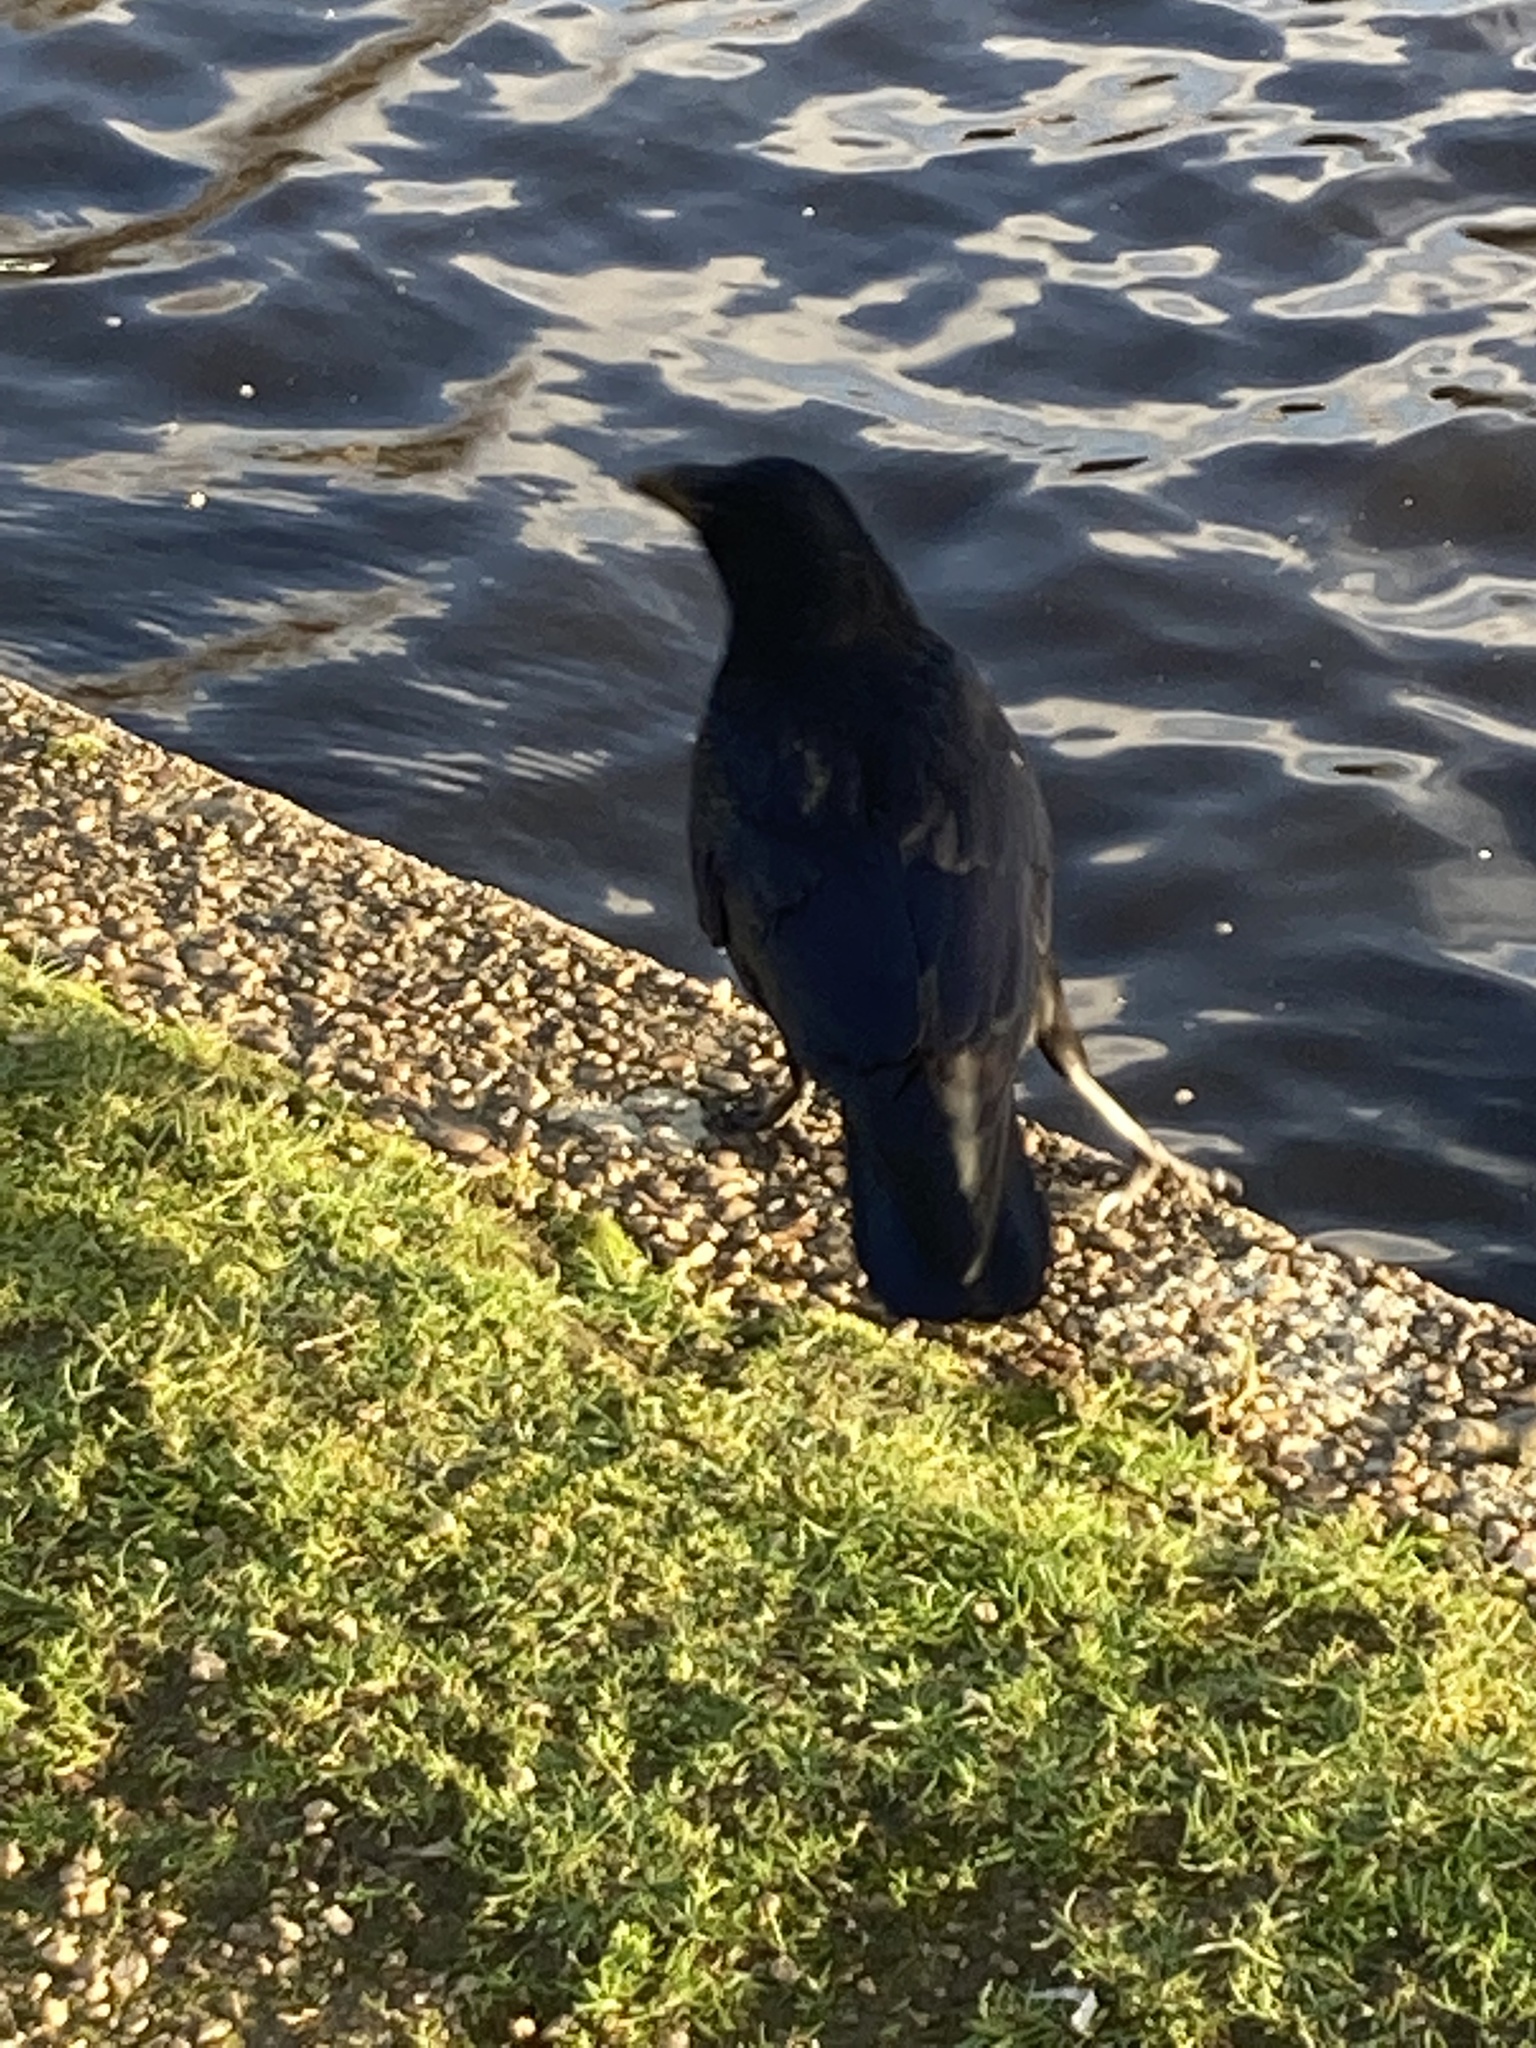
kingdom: Animalia
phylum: Chordata
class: Aves
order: Passeriformes
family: Corvidae
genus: Corvus
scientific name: Corvus corone
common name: Carrion crow
